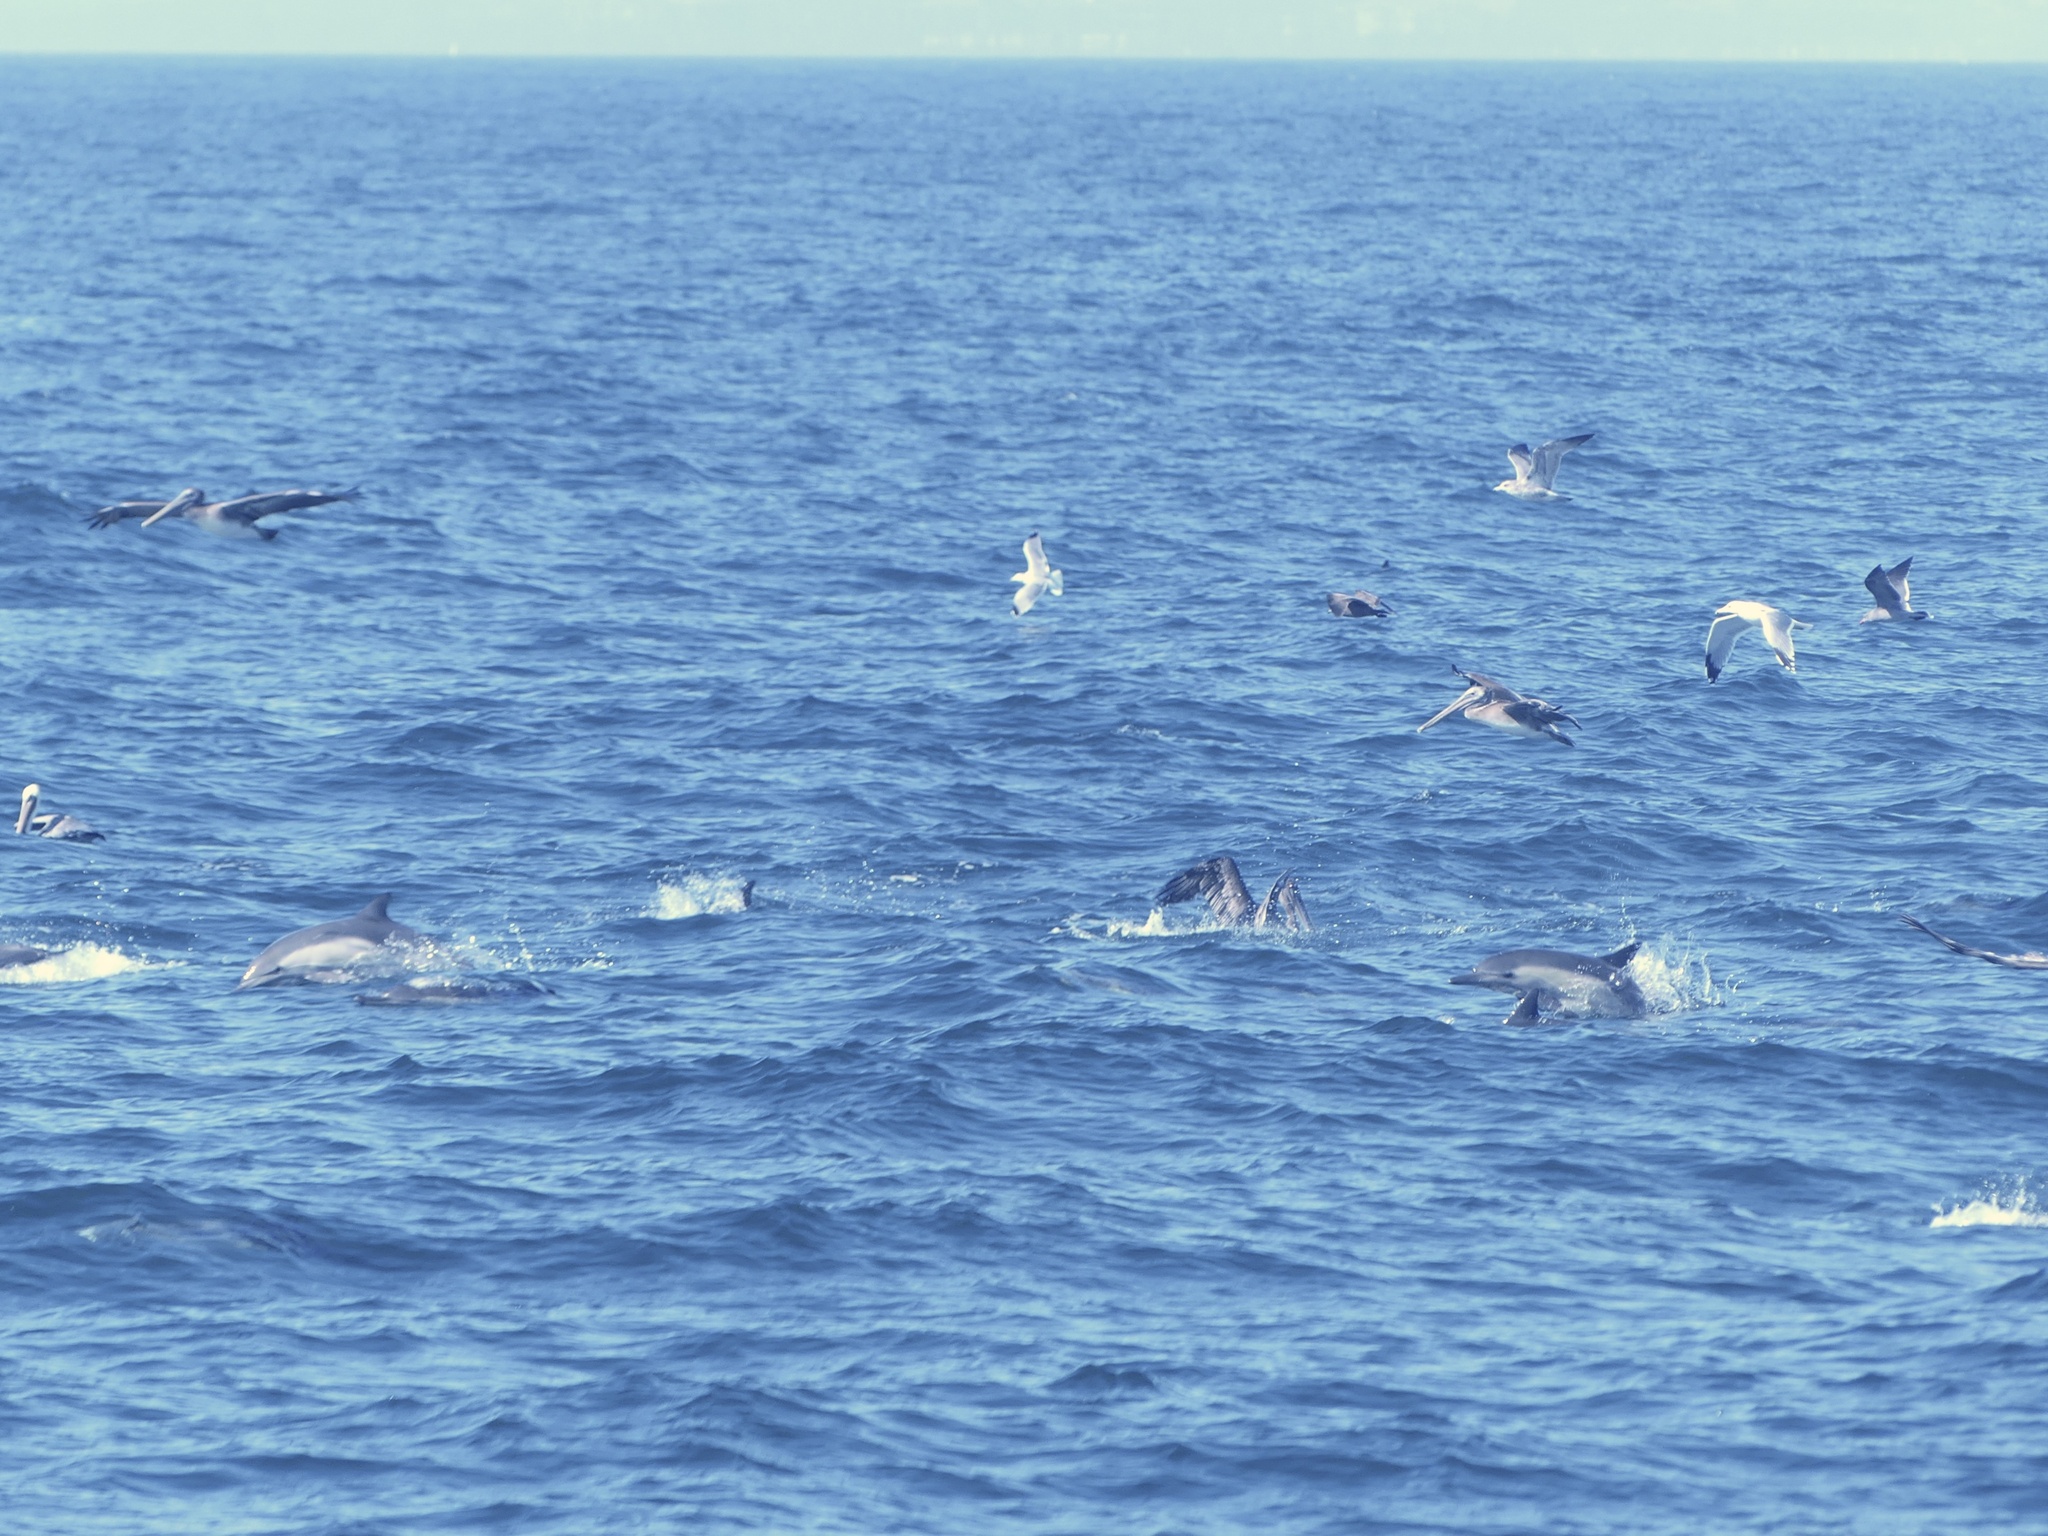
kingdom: Animalia
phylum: Chordata
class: Aves
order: Pelecaniformes
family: Pelecanidae
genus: Pelecanus
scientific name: Pelecanus occidentalis
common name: Brown pelican
